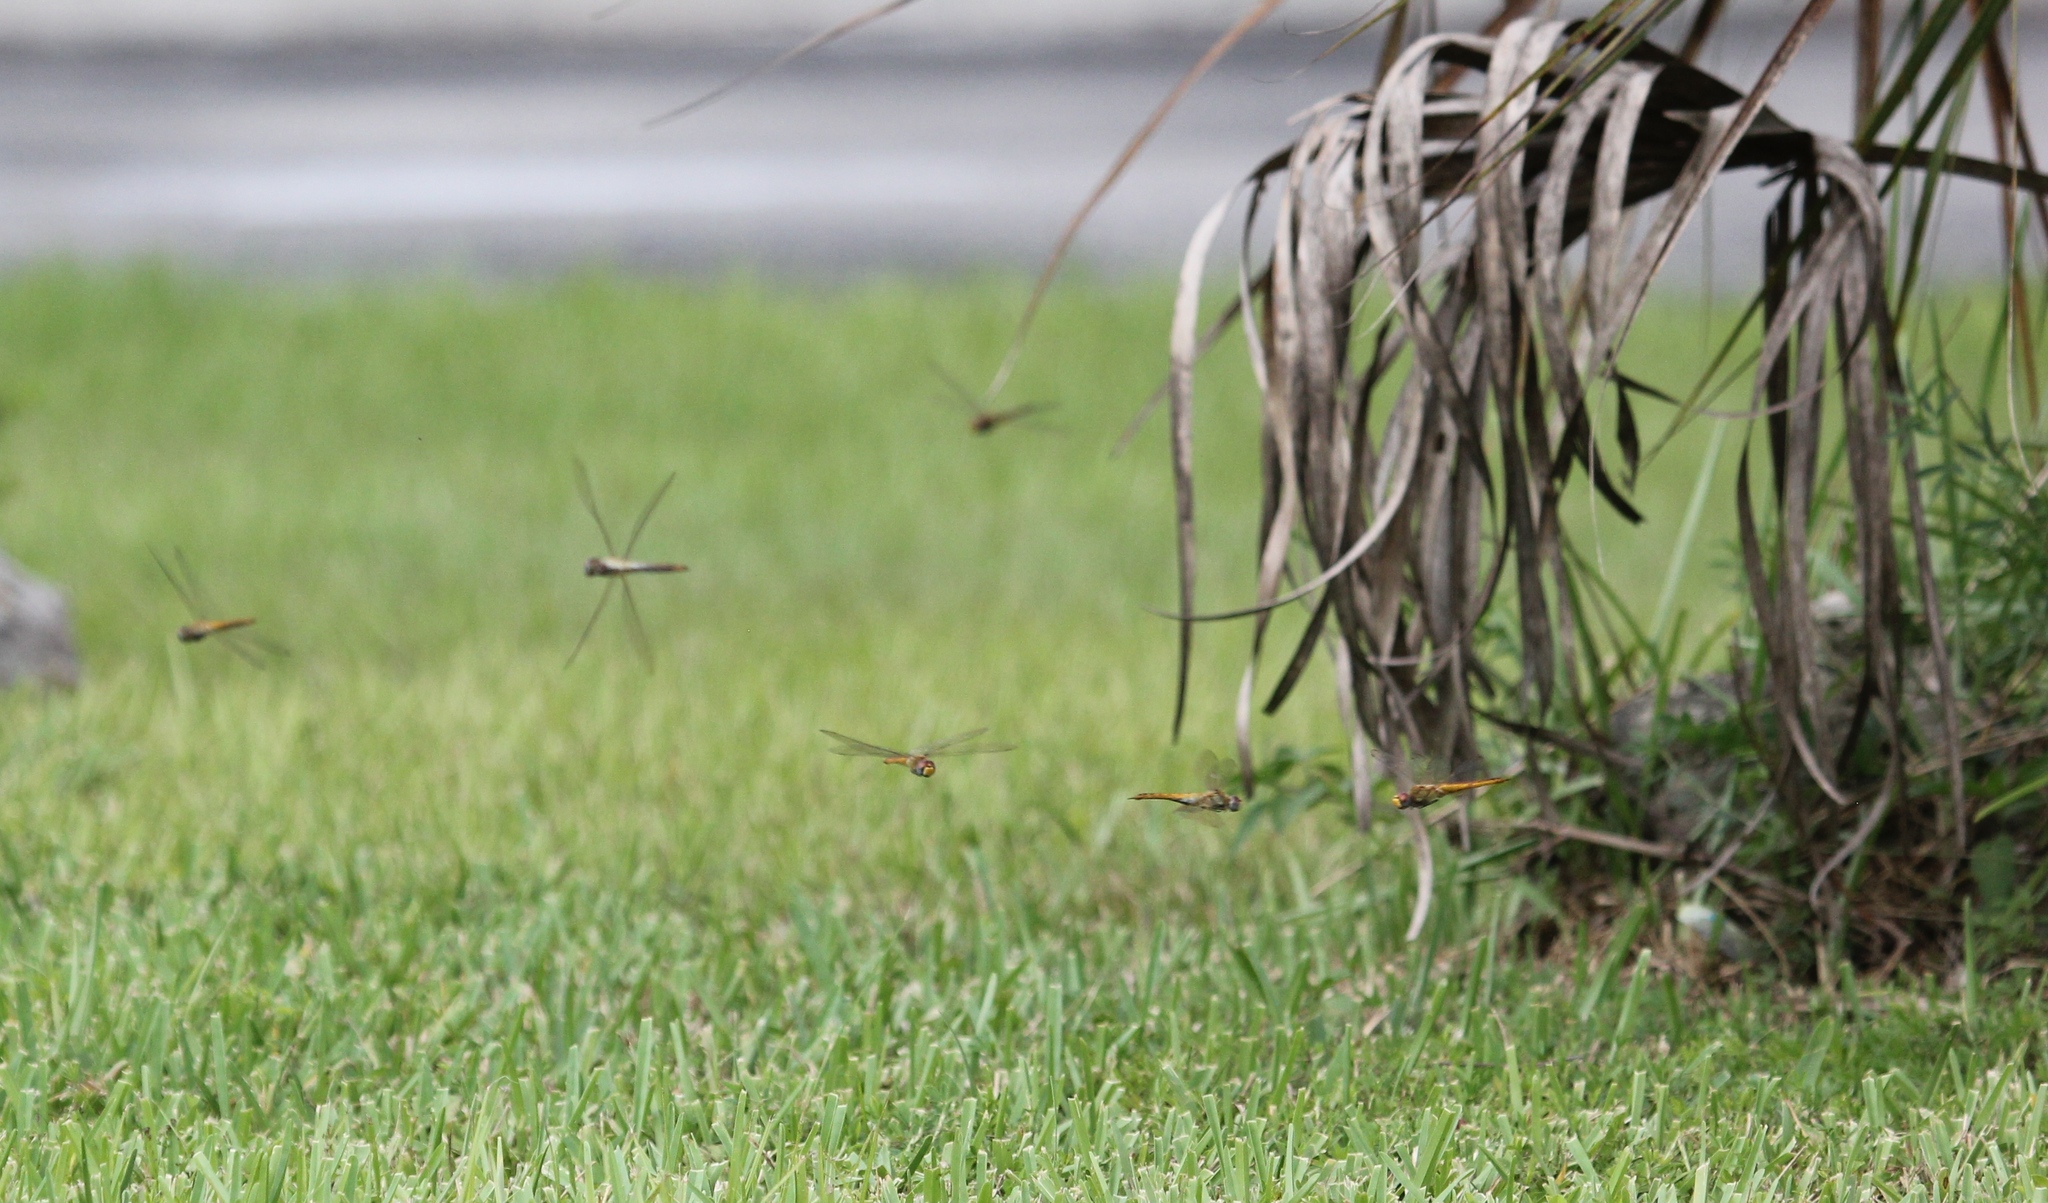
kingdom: Animalia
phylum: Arthropoda
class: Insecta
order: Odonata
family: Libellulidae
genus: Pantala
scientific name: Pantala flavescens
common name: Wandering glider
